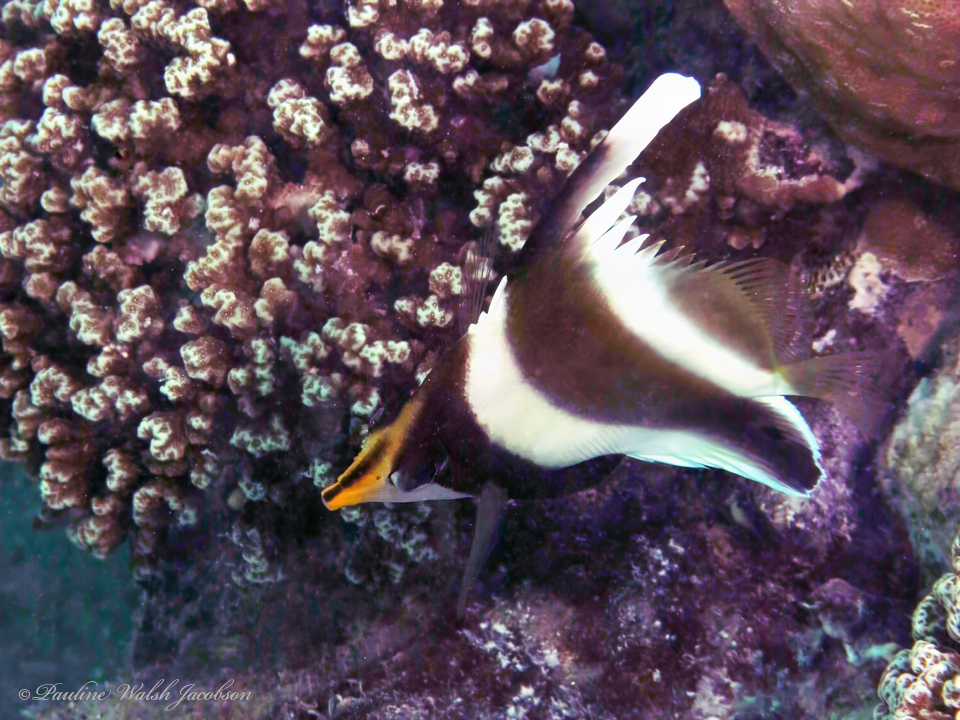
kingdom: Animalia
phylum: Chordata
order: Perciformes
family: Chaetodontidae
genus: Heniochus
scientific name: Heniochus chrysostomus
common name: Horned bannerfish
